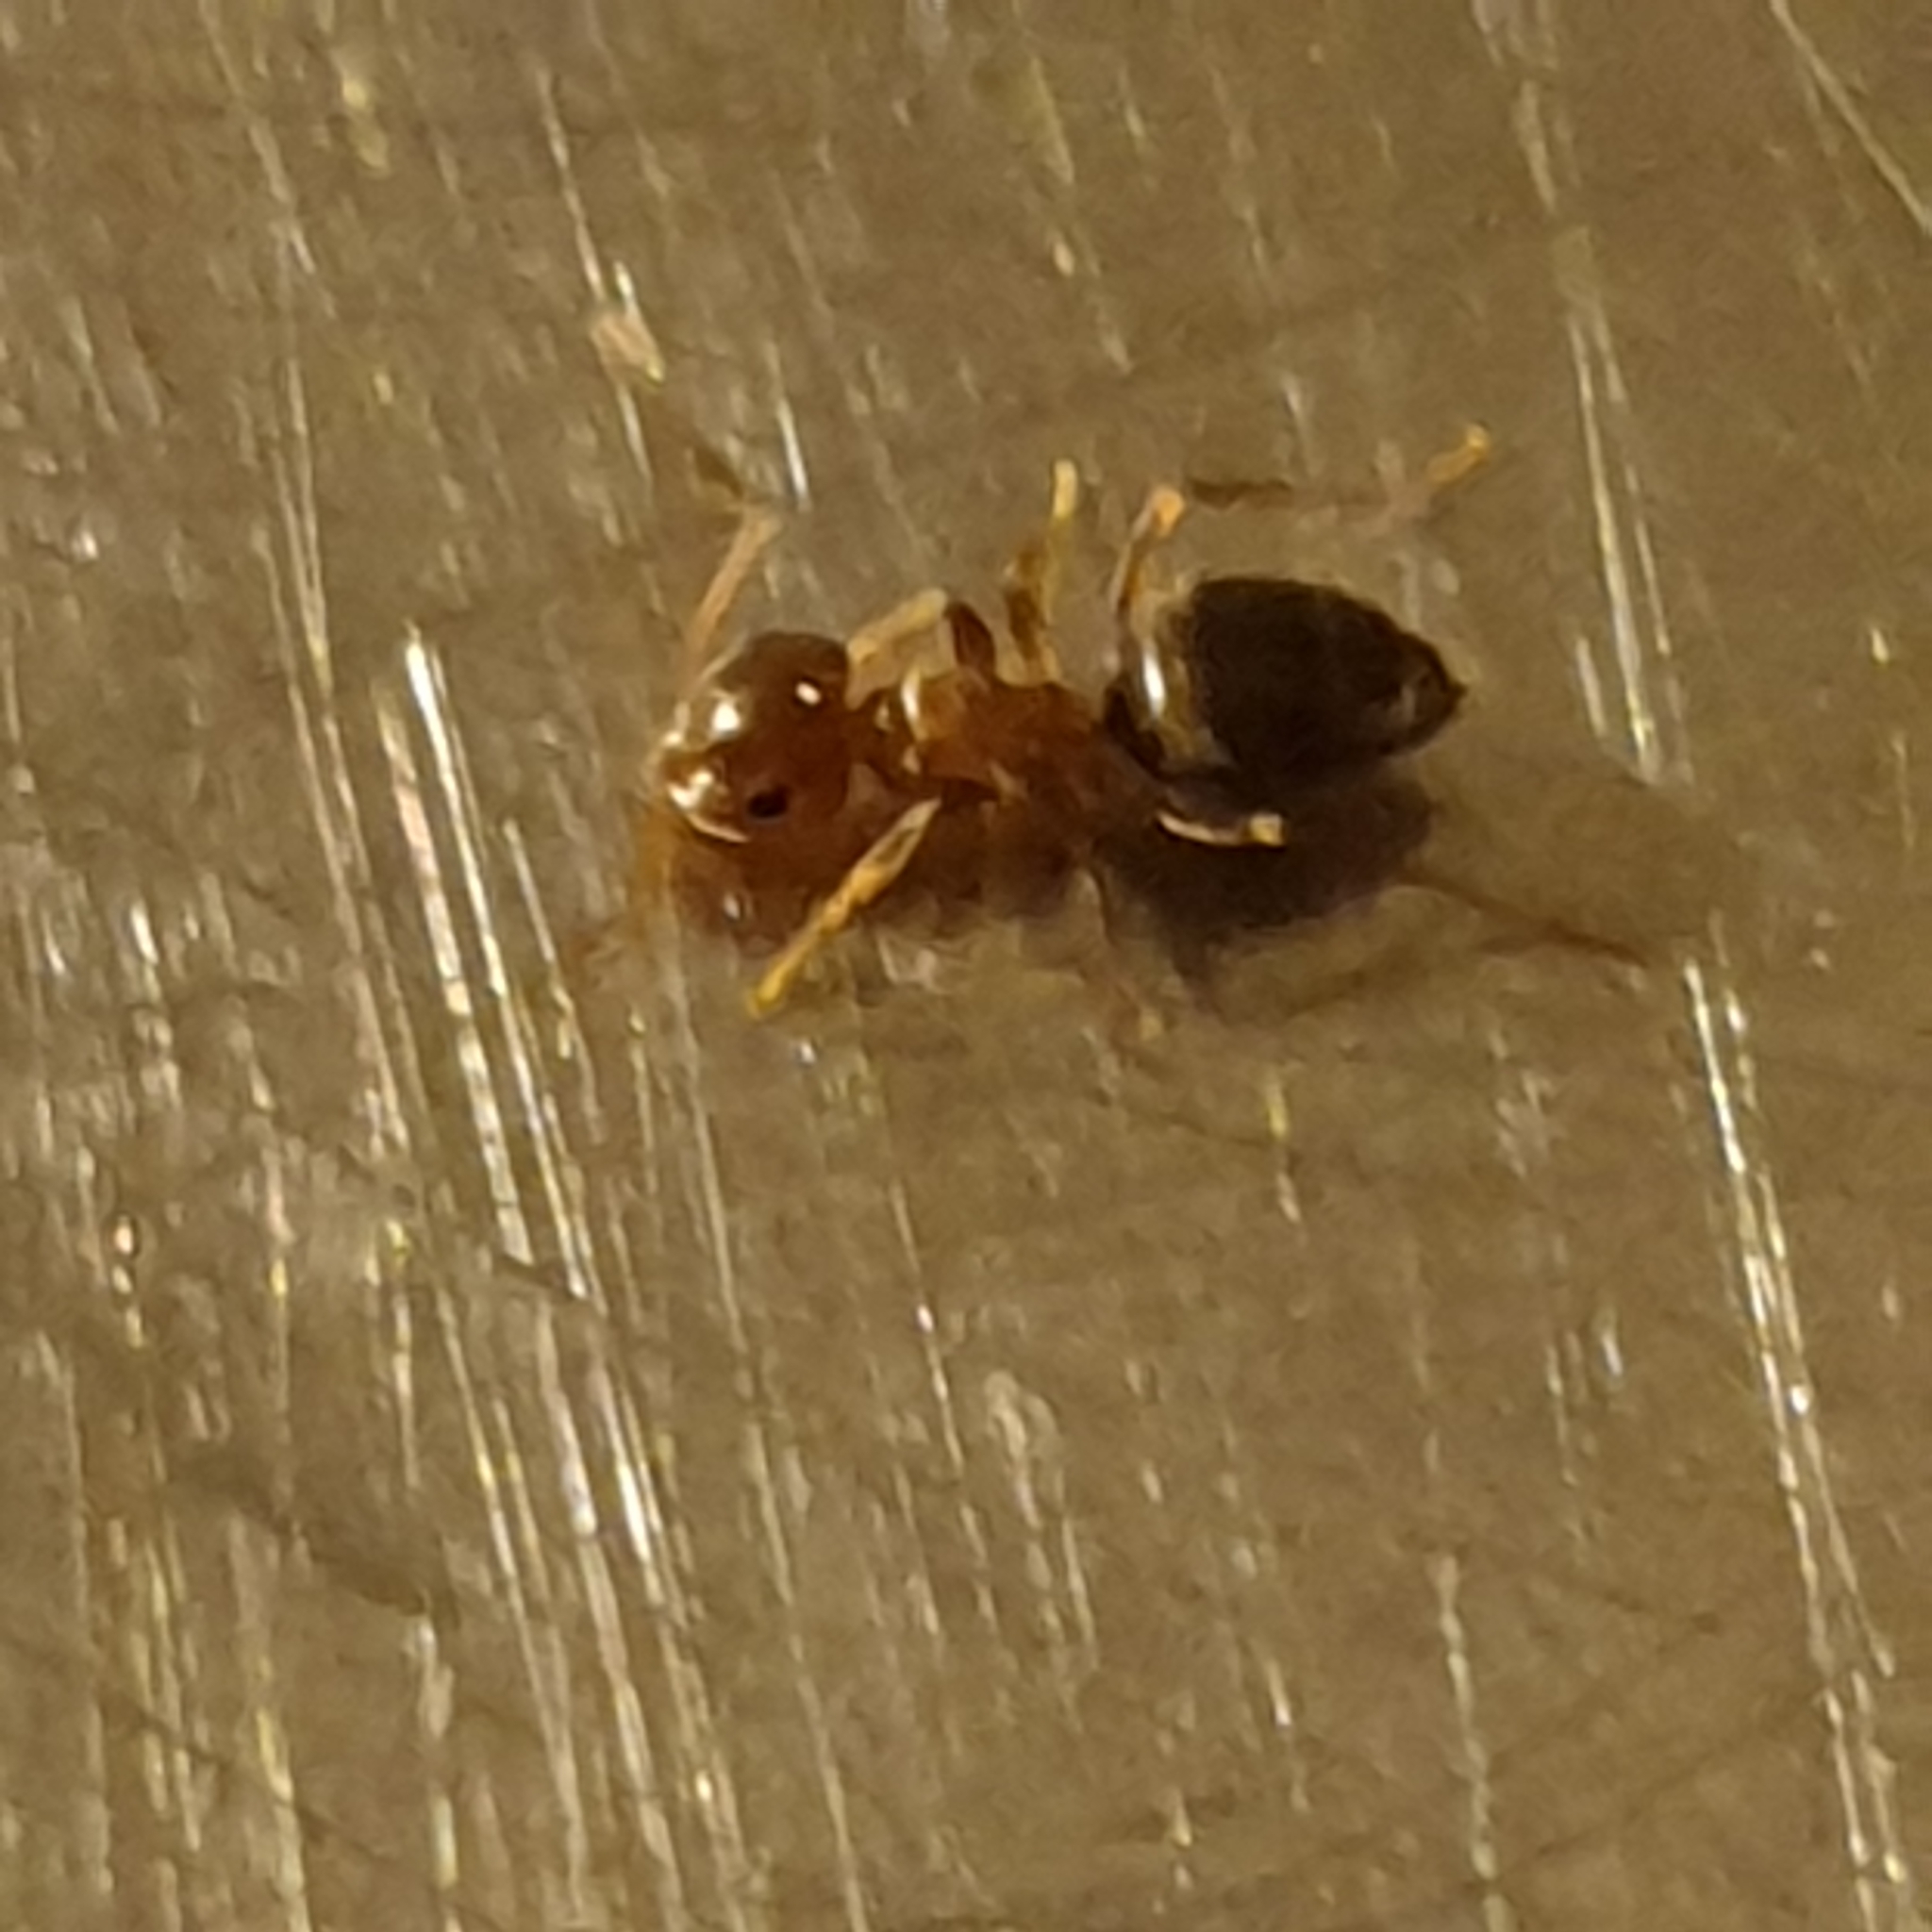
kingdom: Animalia
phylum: Arthropoda
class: Insecta
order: Hymenoptera
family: Formicidae
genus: Lasius
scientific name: Lasius brunneus
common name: Brown ant
